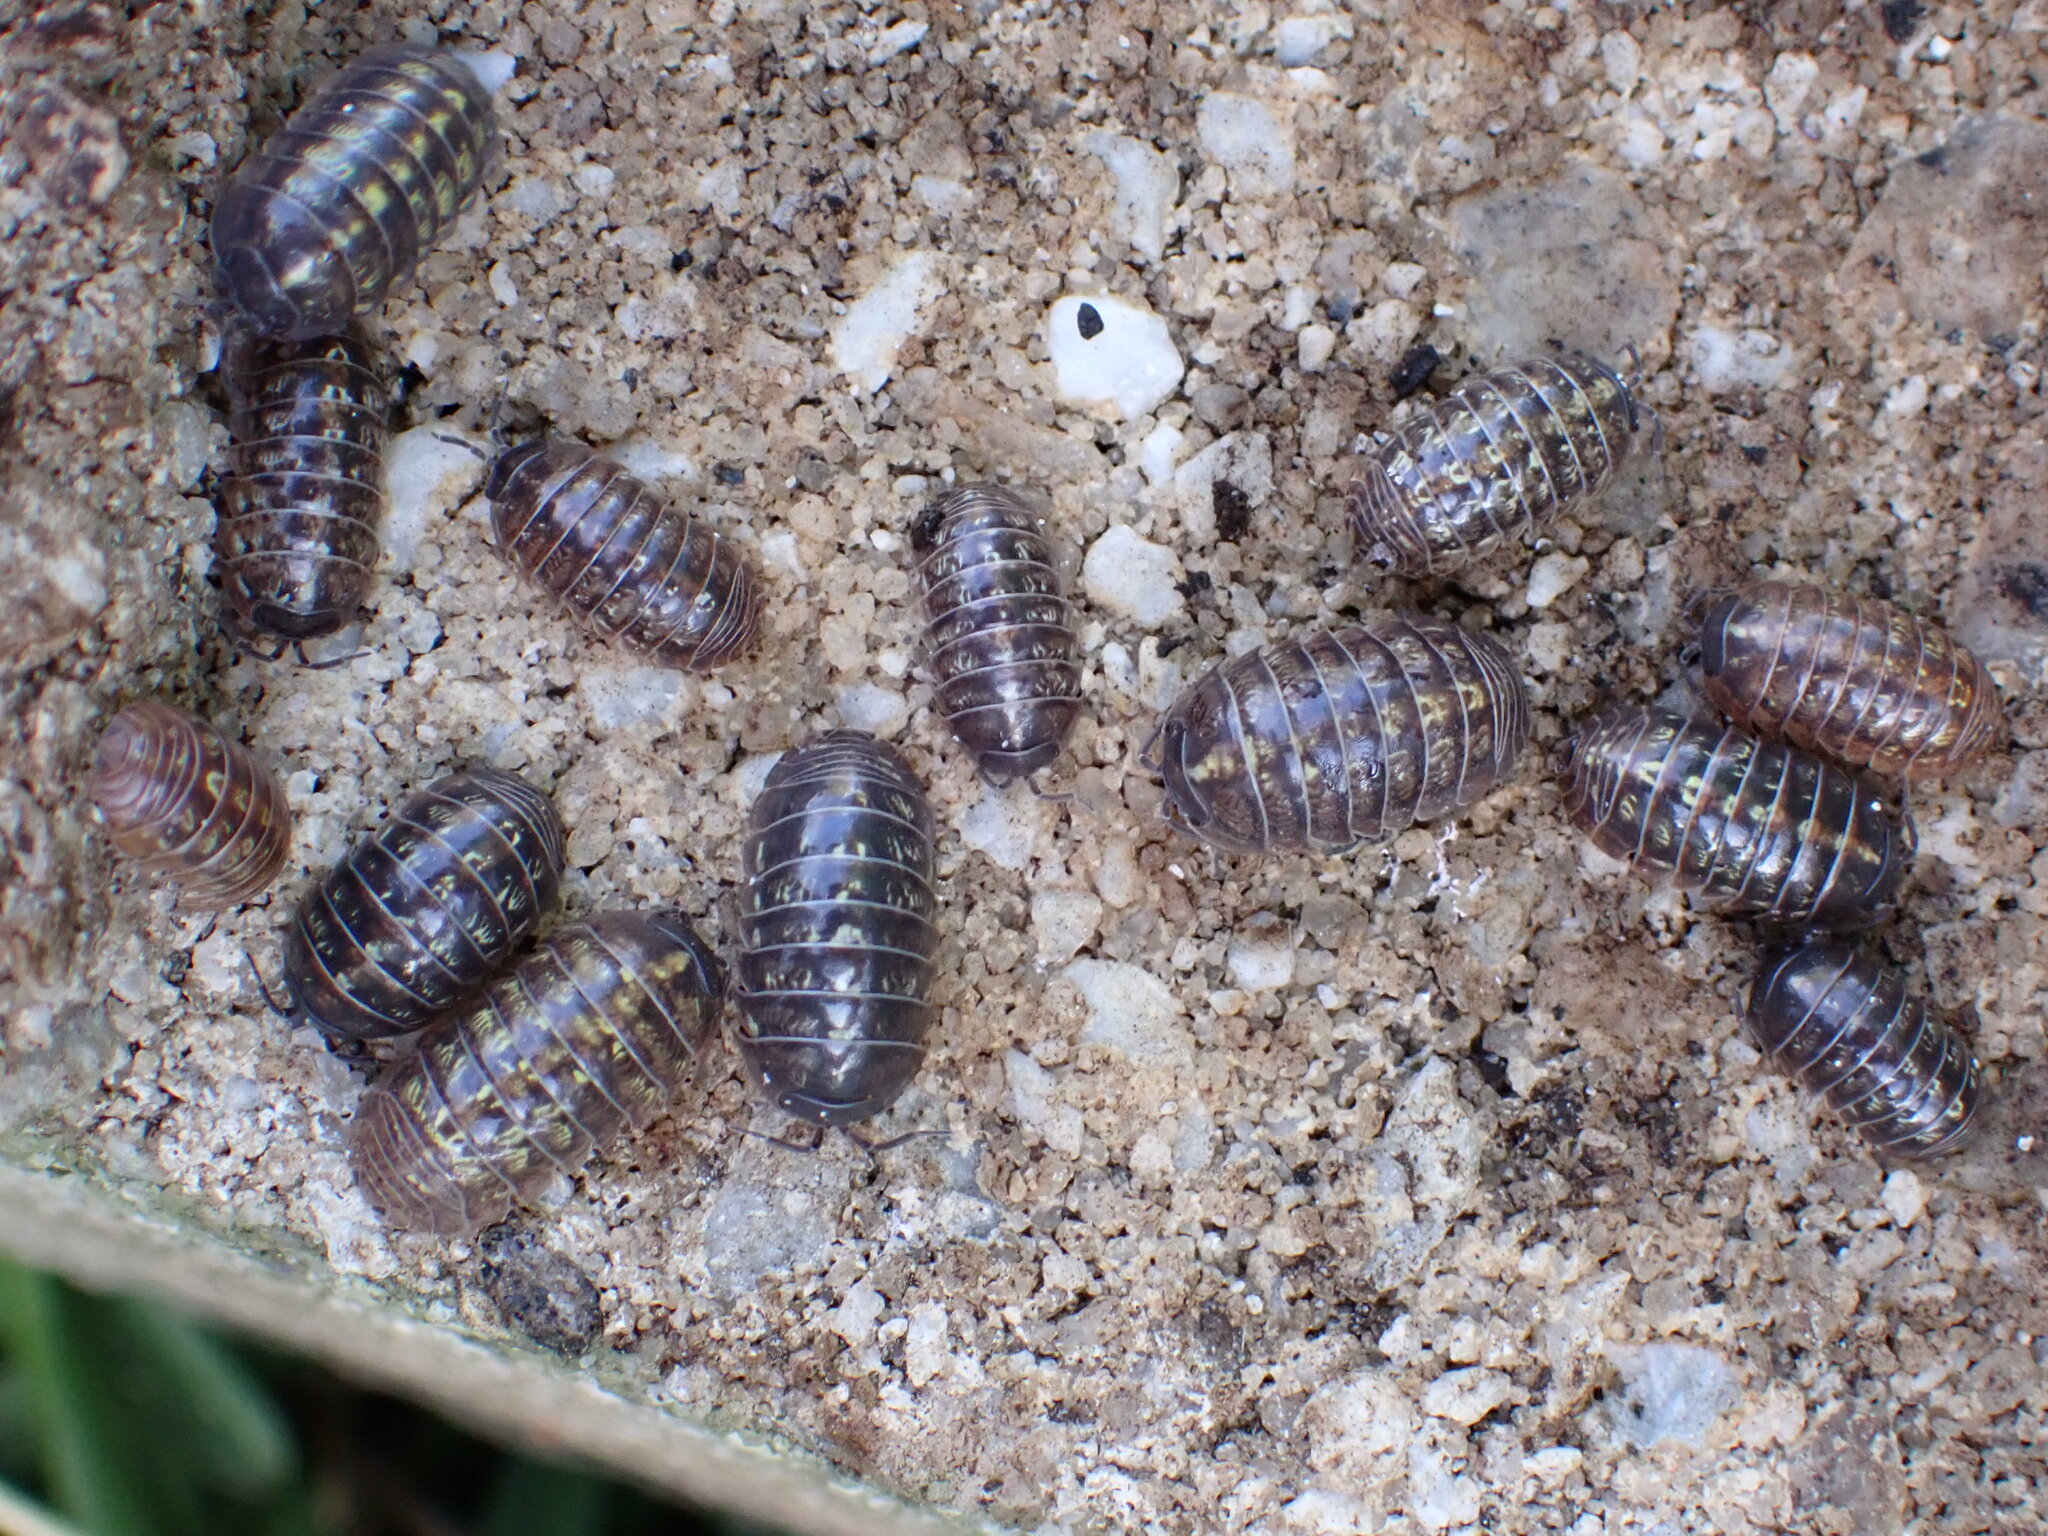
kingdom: Animalia
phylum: Arthropoda
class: Malacostraca
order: Isopoda
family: Armadillidiidae
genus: Armadillidium
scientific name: Armadillidium vulgare
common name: Common pill woodlouse
